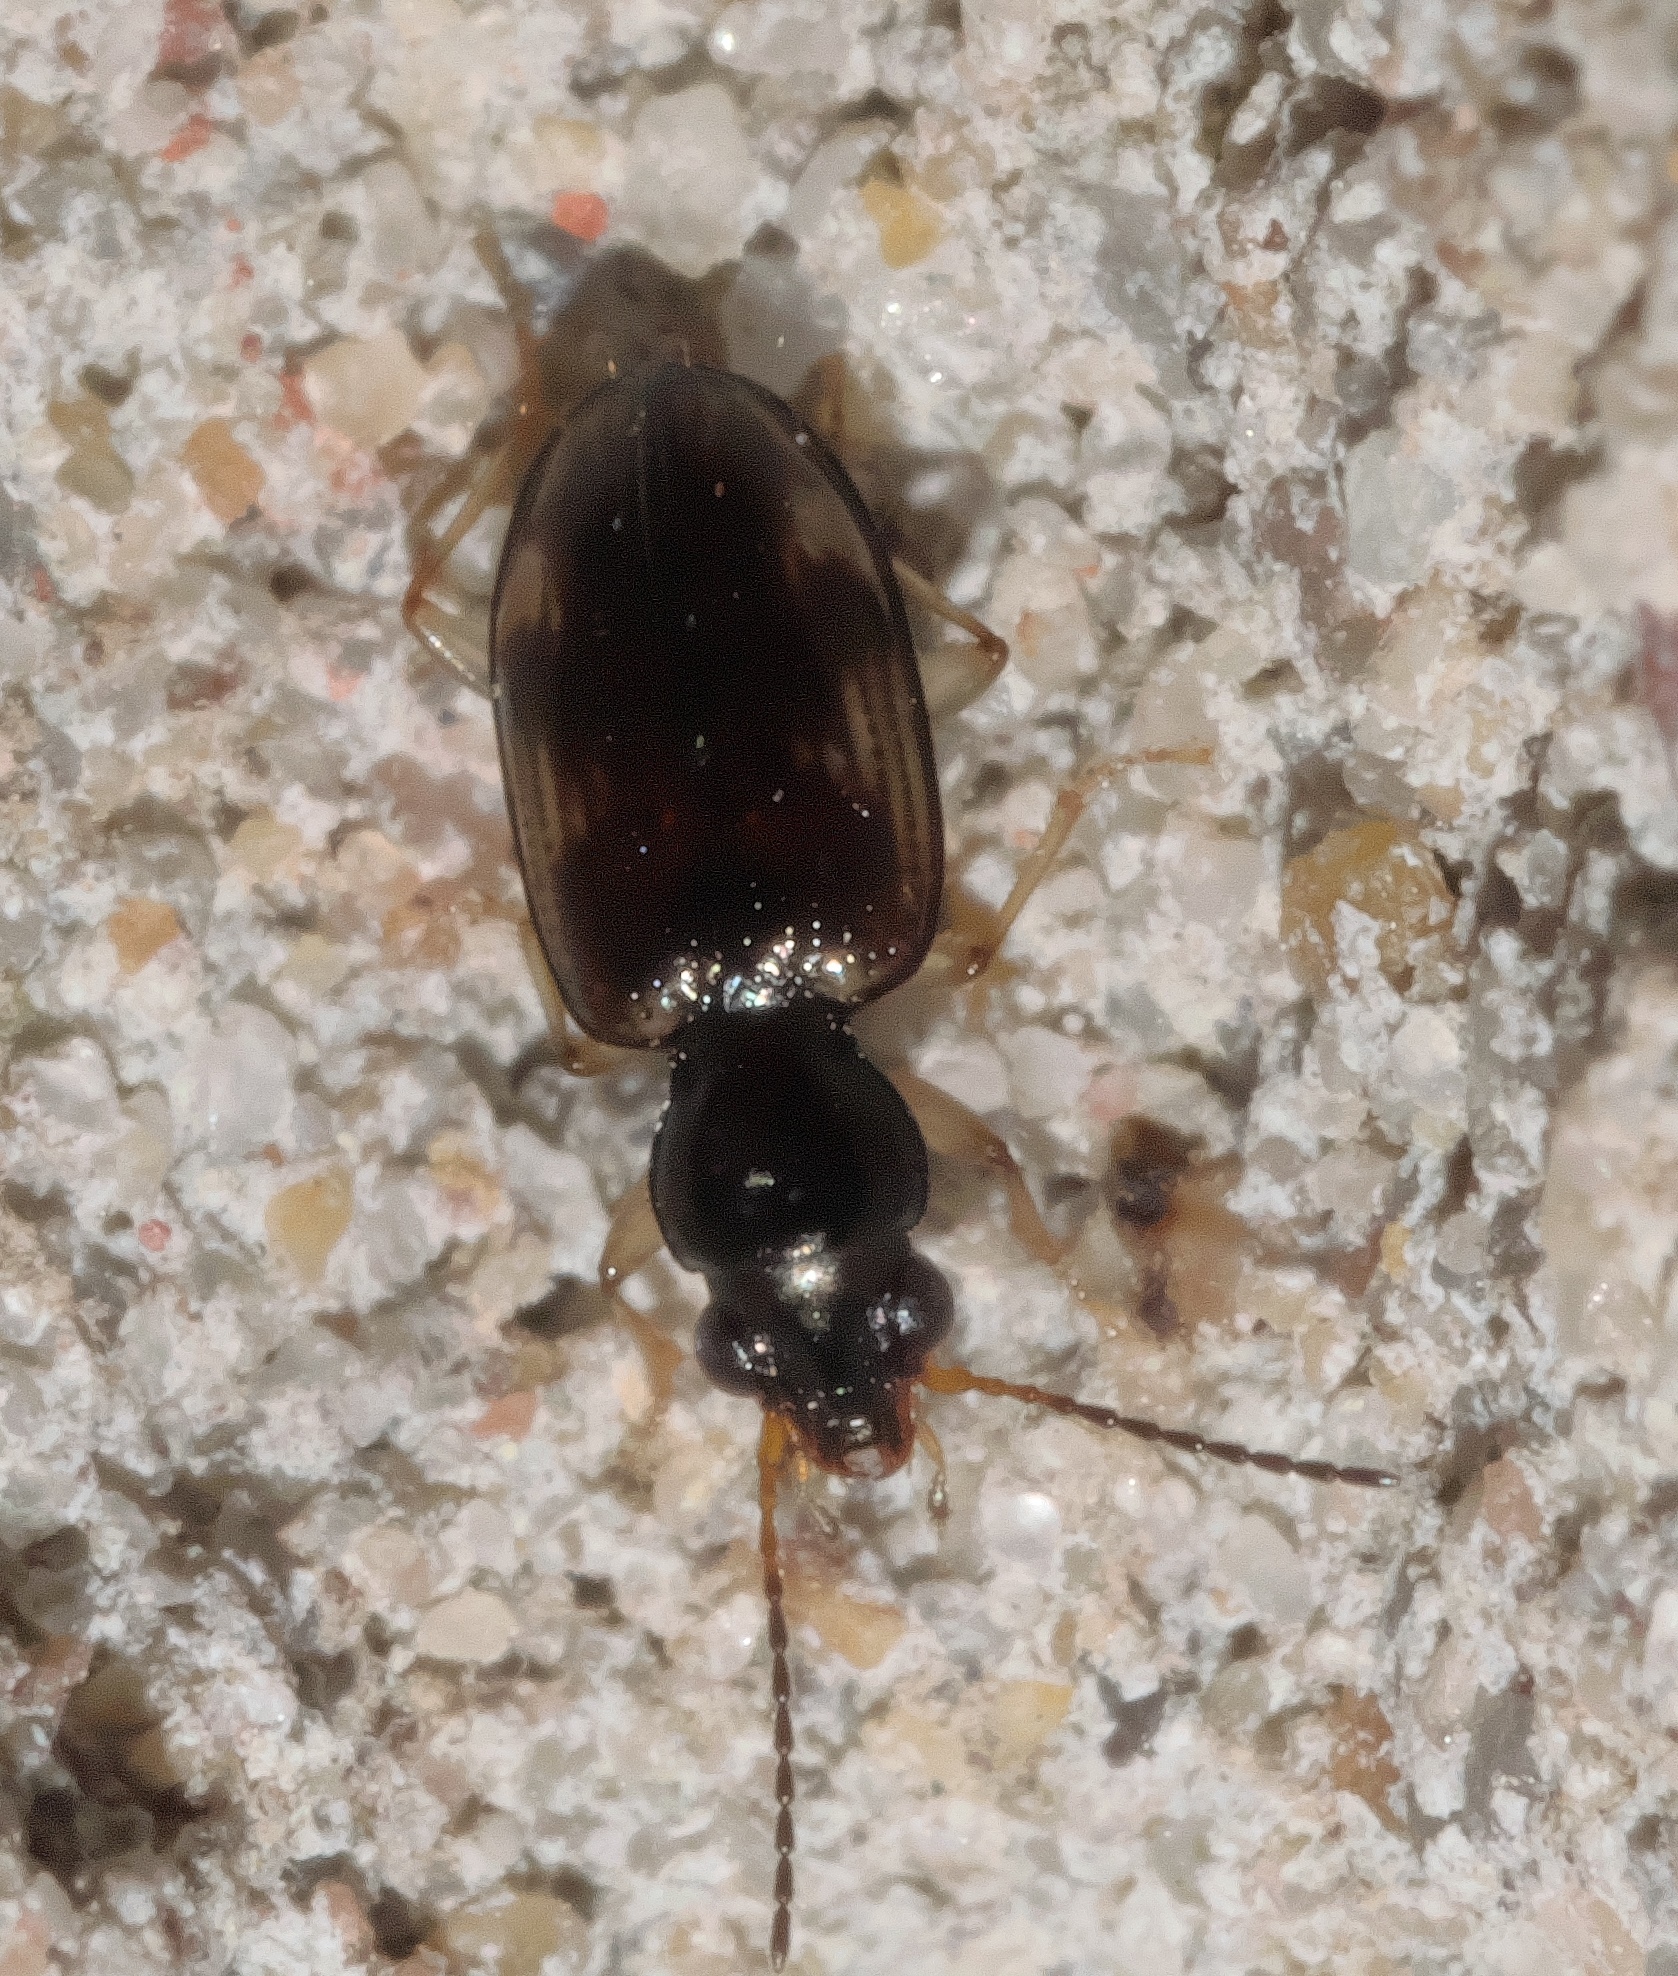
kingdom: Animalia
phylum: Arthropoda
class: Insecta
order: Coleoptera
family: Carabidae
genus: Bembidion
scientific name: Bembidion rapidum
